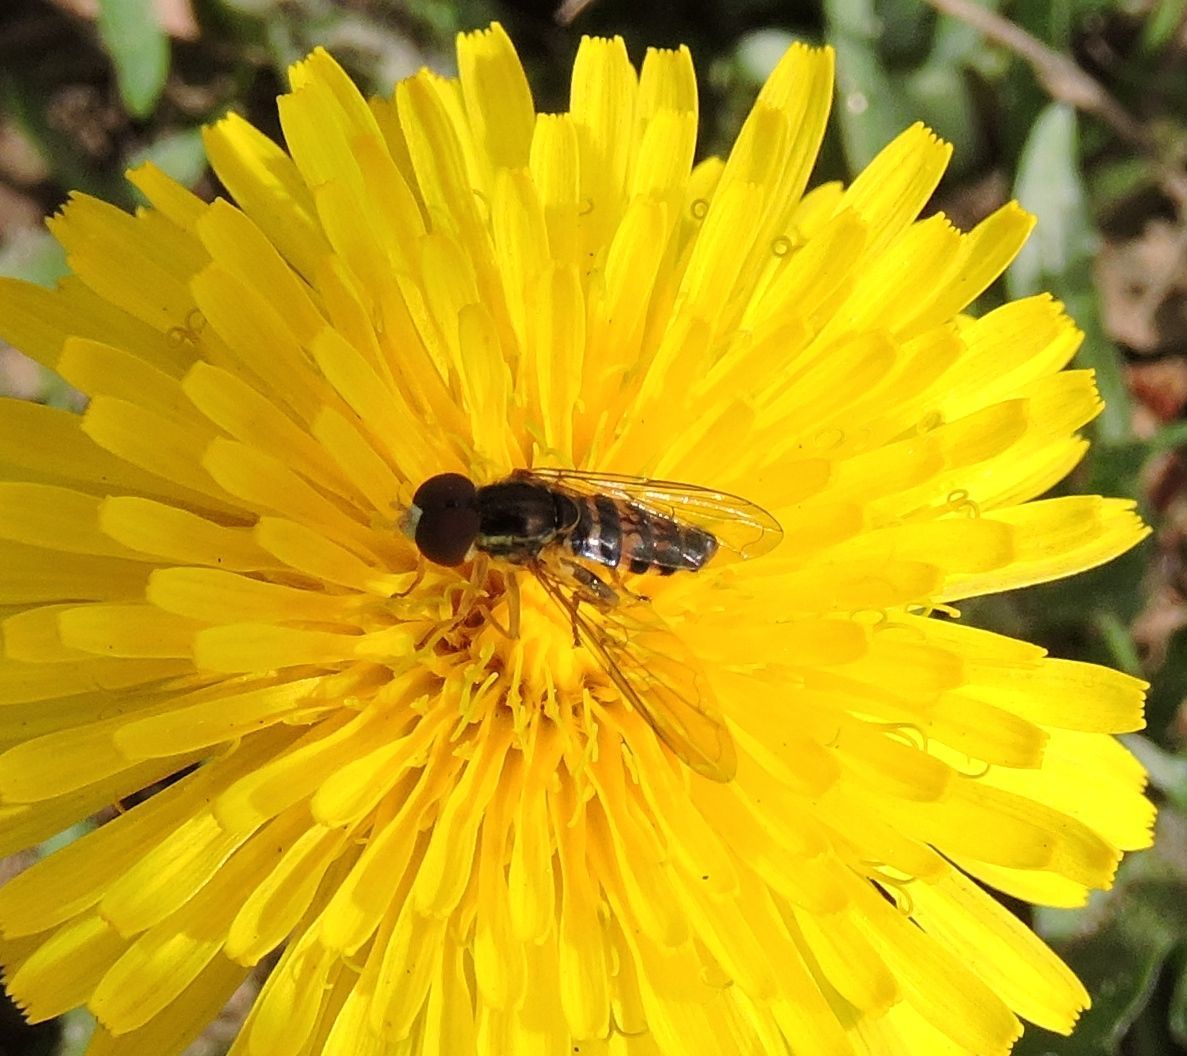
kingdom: Animalia
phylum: Arthropoda
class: Insecta
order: Diptera
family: Syrphidae
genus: Toxomerus
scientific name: Toxomerus geminatus
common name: Eastern calligrapher
